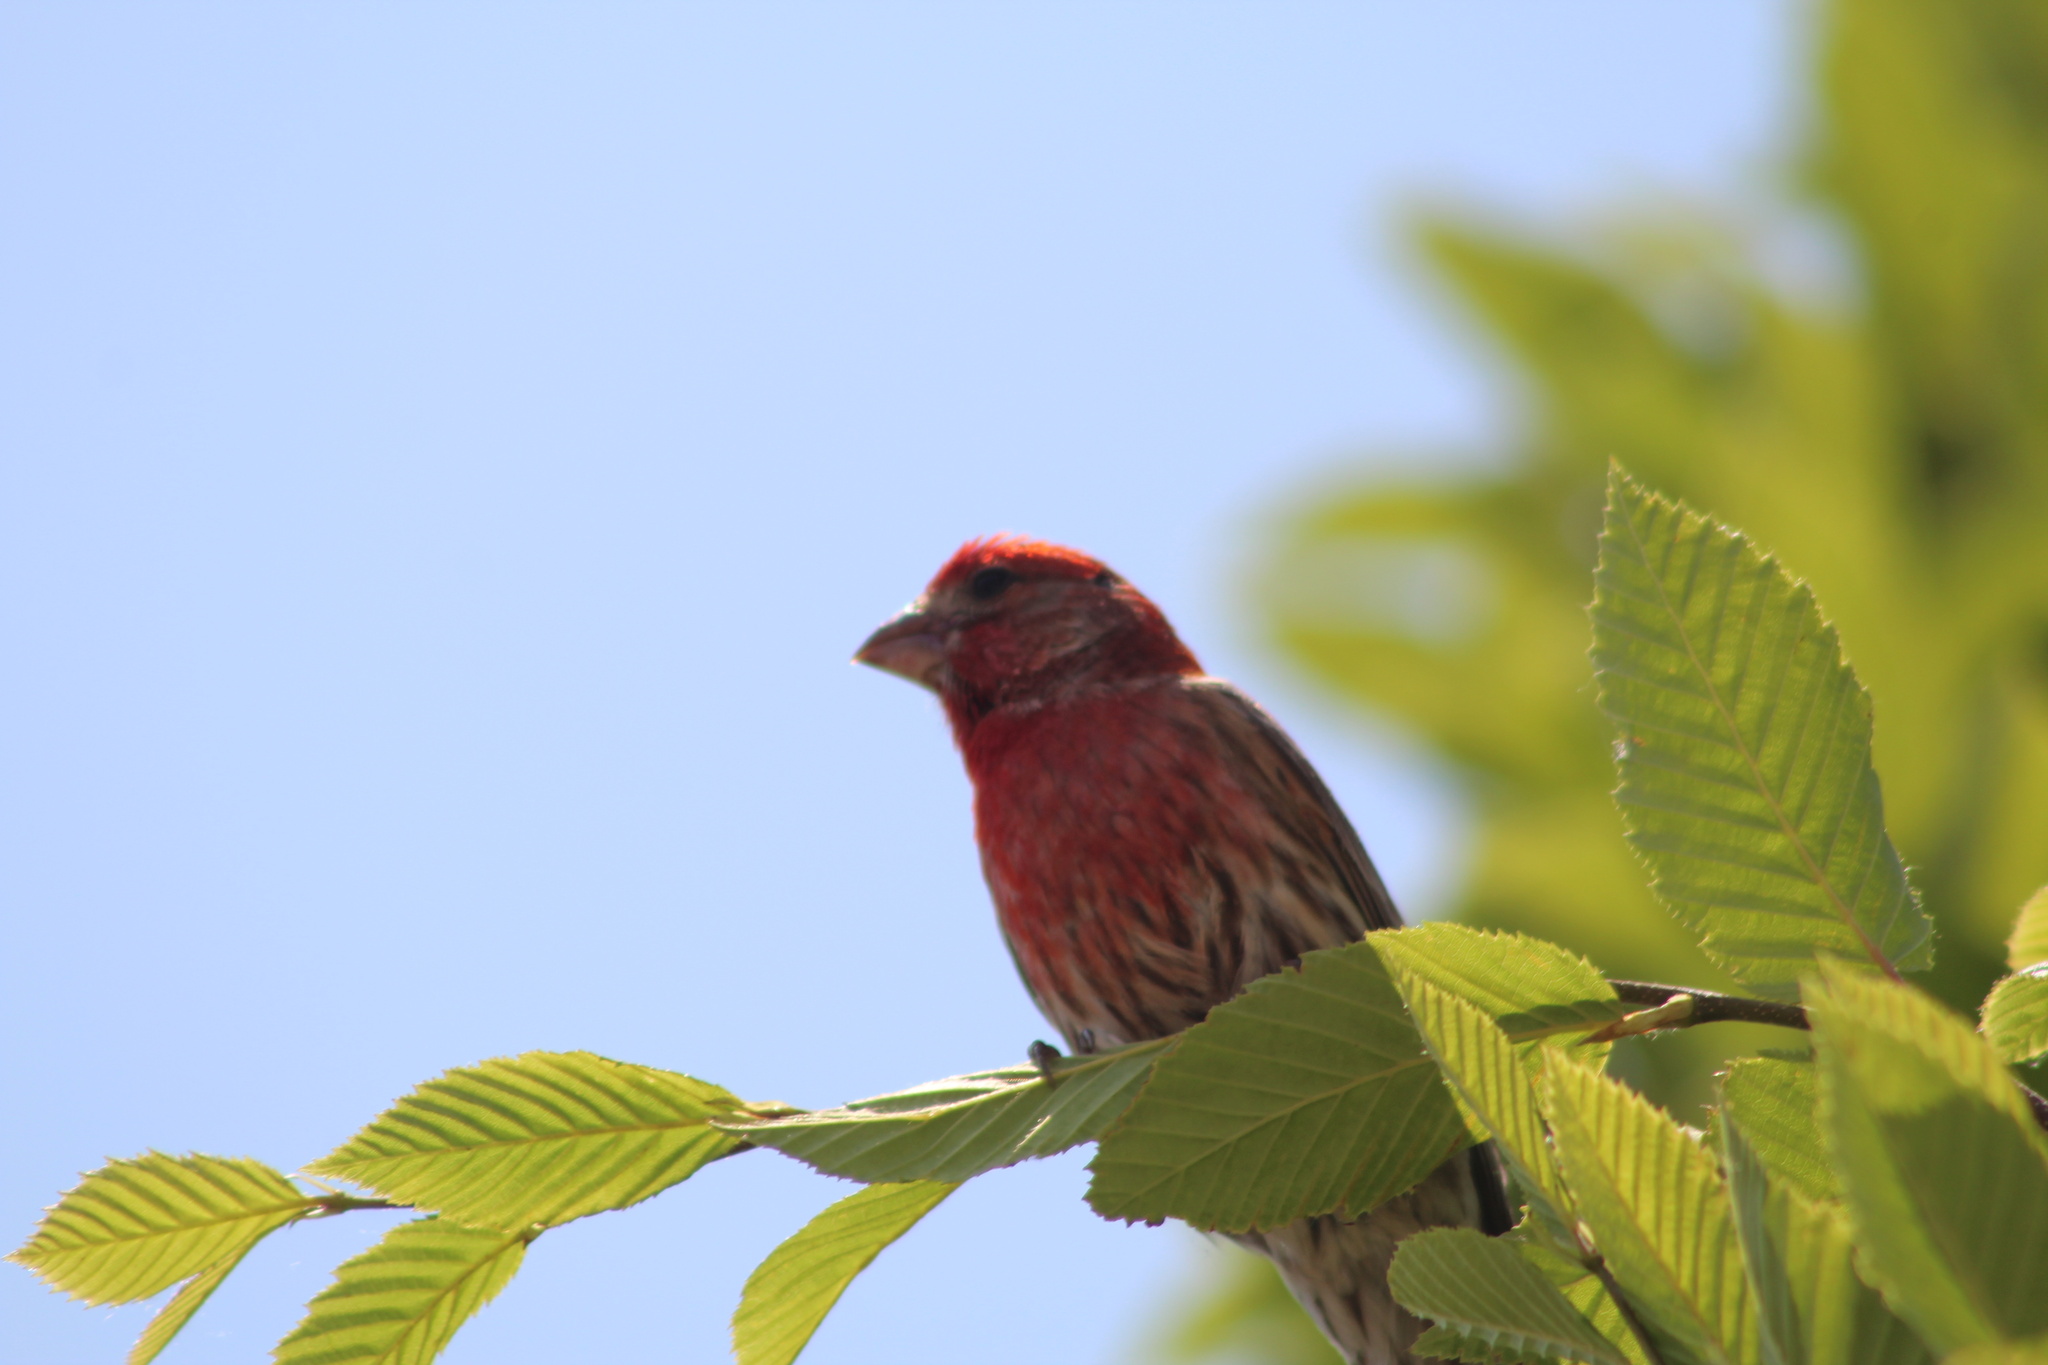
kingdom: Animalia
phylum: Chordata
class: Aves
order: Passeriformes
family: Fringillidae
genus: Haemorhous
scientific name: Haemorhous mexicanus
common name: House finch
